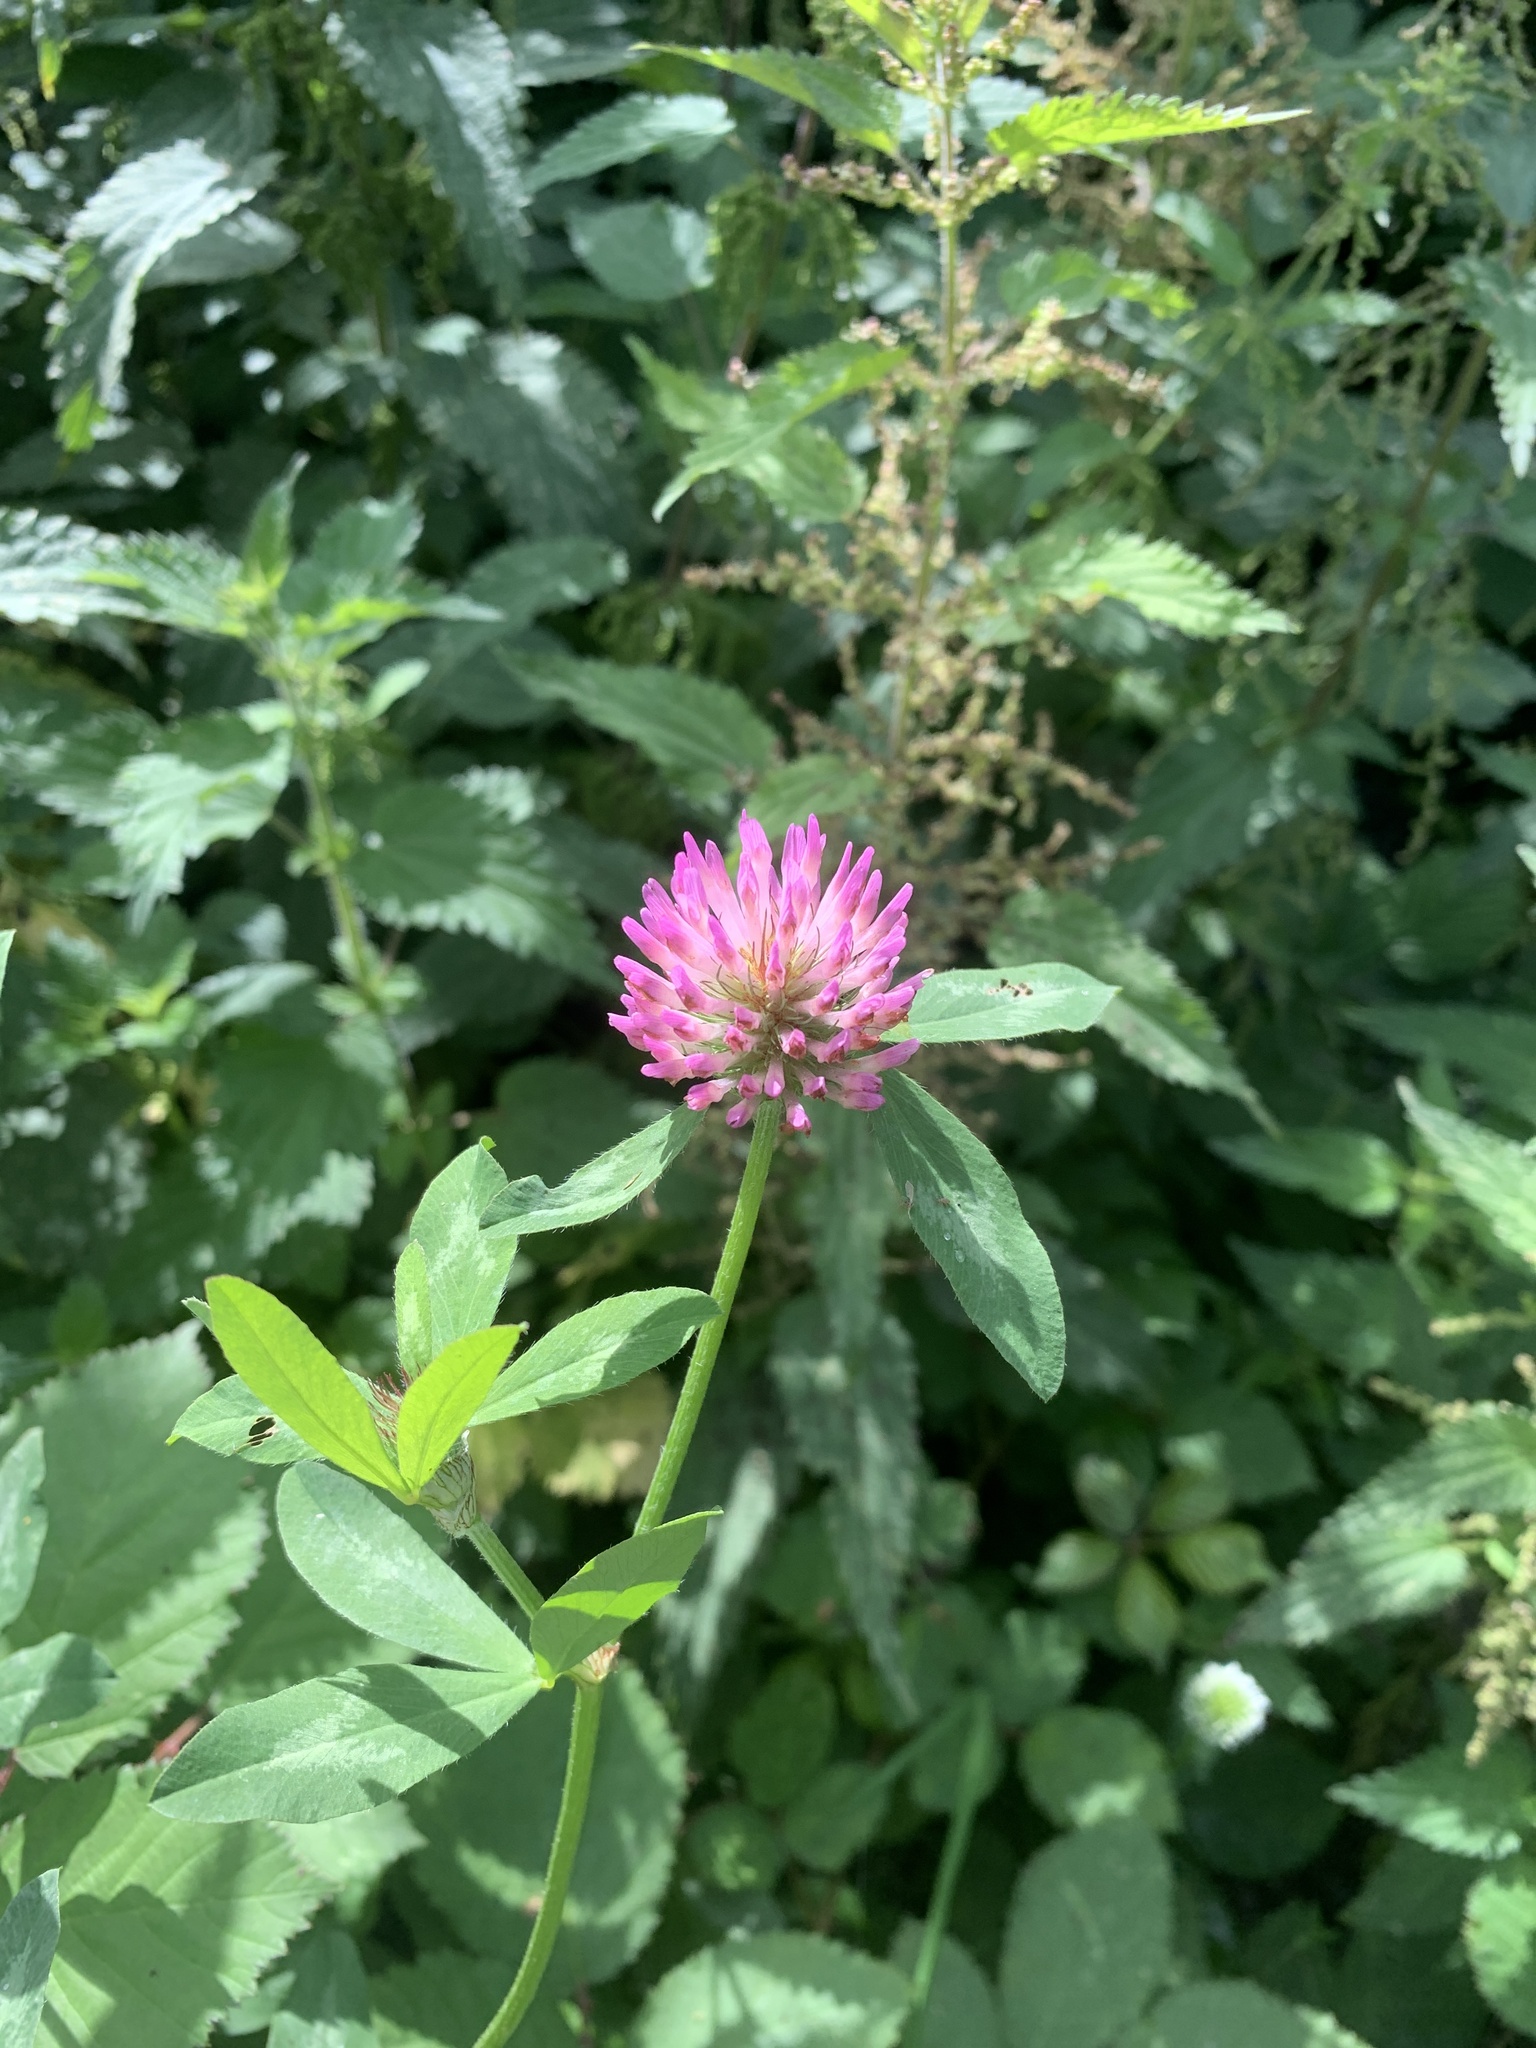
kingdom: Plantae
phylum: Tracheophyta
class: Magnoliopsida
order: Fabales
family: Fabaceae
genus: Trifolium
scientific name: Trifolium pratense
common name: Red clover
